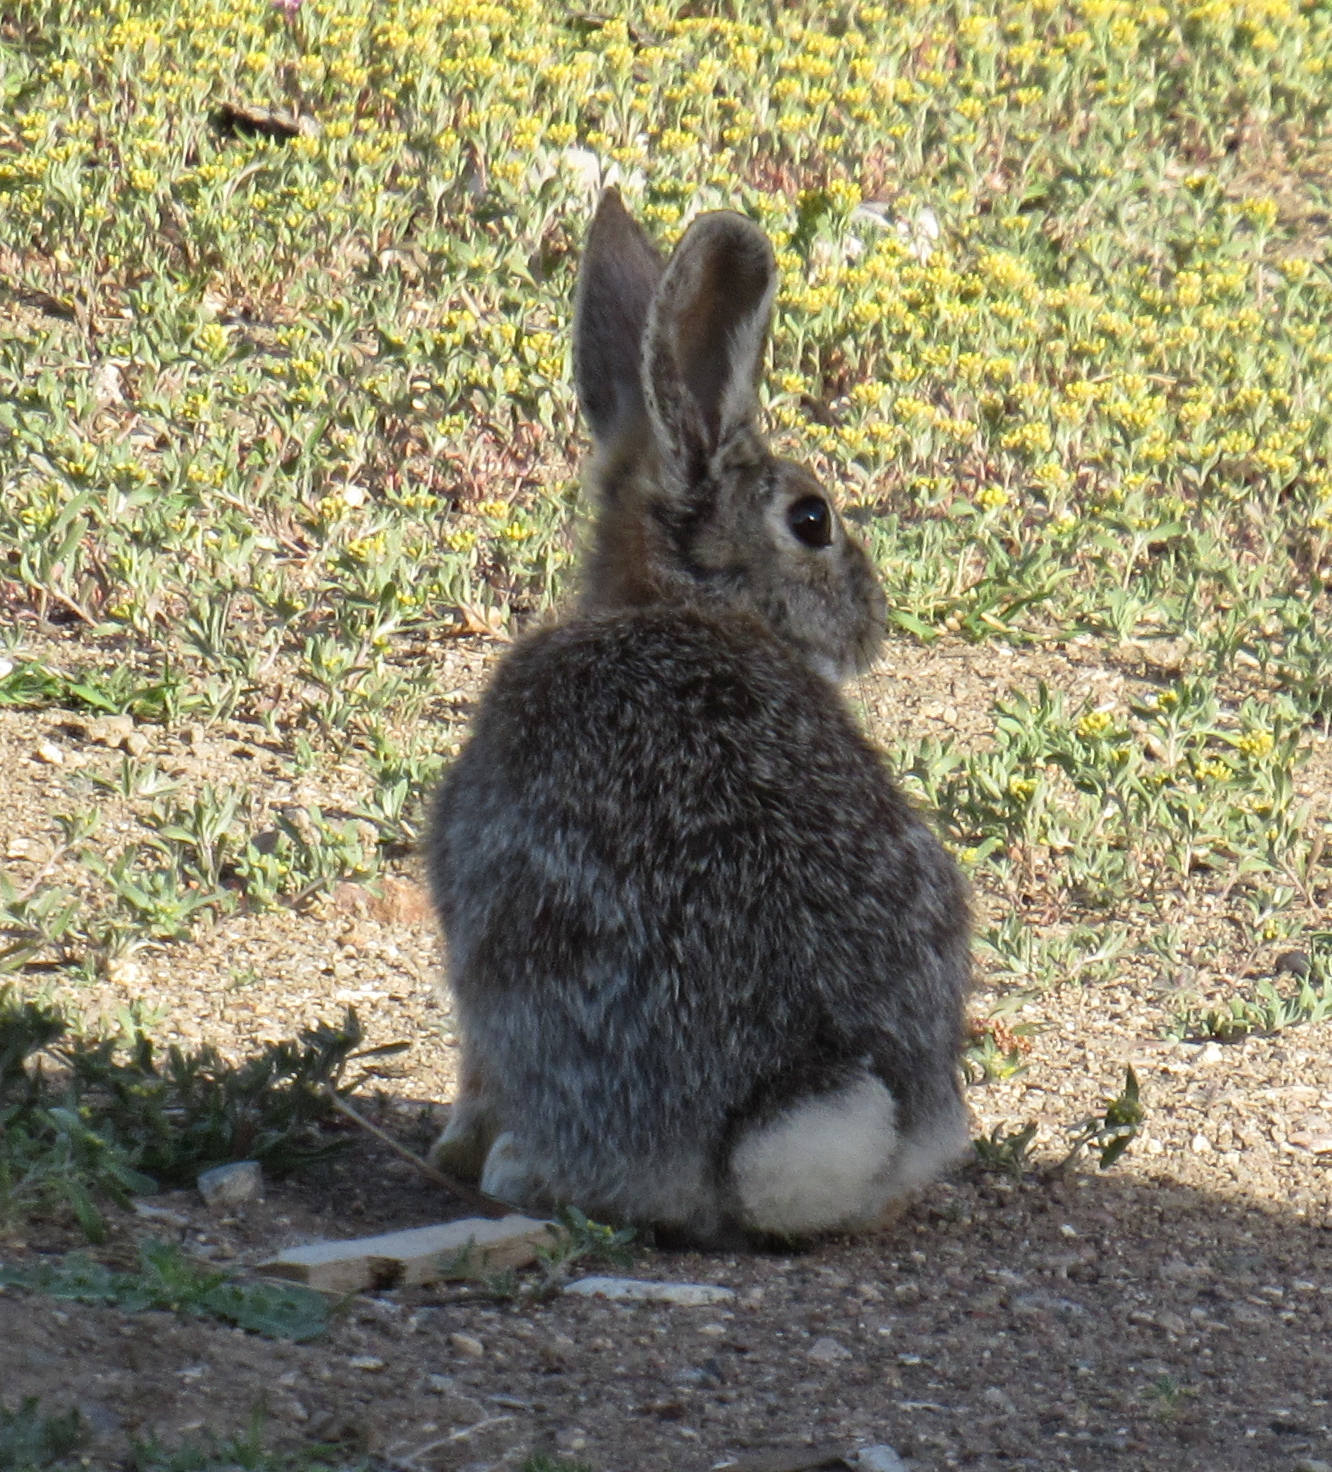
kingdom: Animalia
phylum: Chordata
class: Mammalia
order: Lagomorpha
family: Leporidae
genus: Sylvilagus
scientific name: Sylvilagus nuttallii
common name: Mountain cottontail
